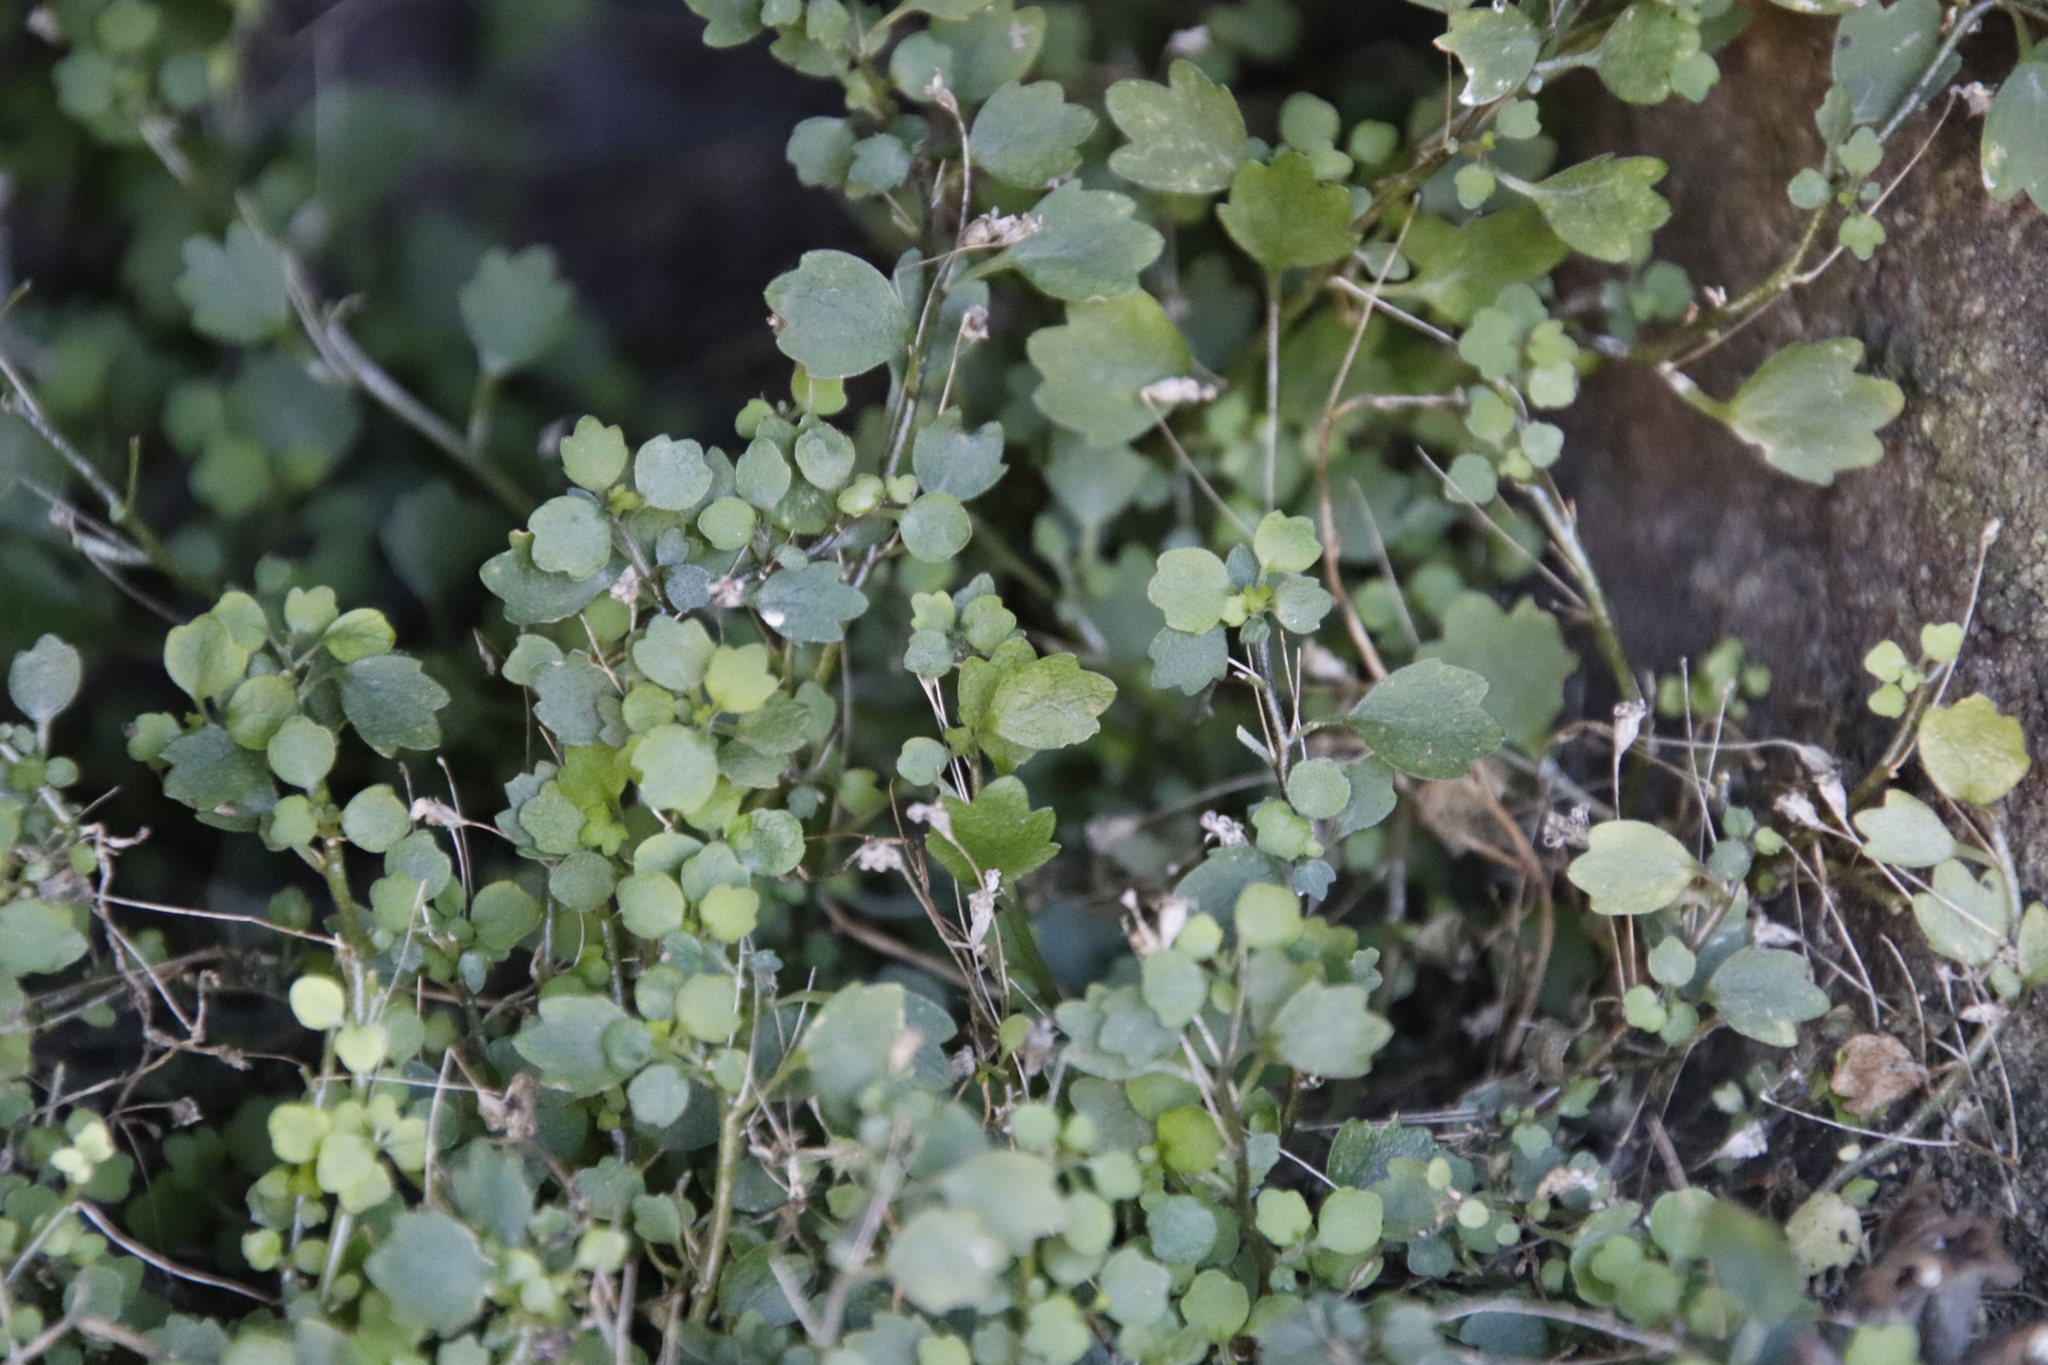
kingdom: Plantae
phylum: Tracheophyta
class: Magnoliopsida
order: Asterales
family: Campanulaceae
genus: Wimmerella
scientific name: Wimmerella pygmaea
